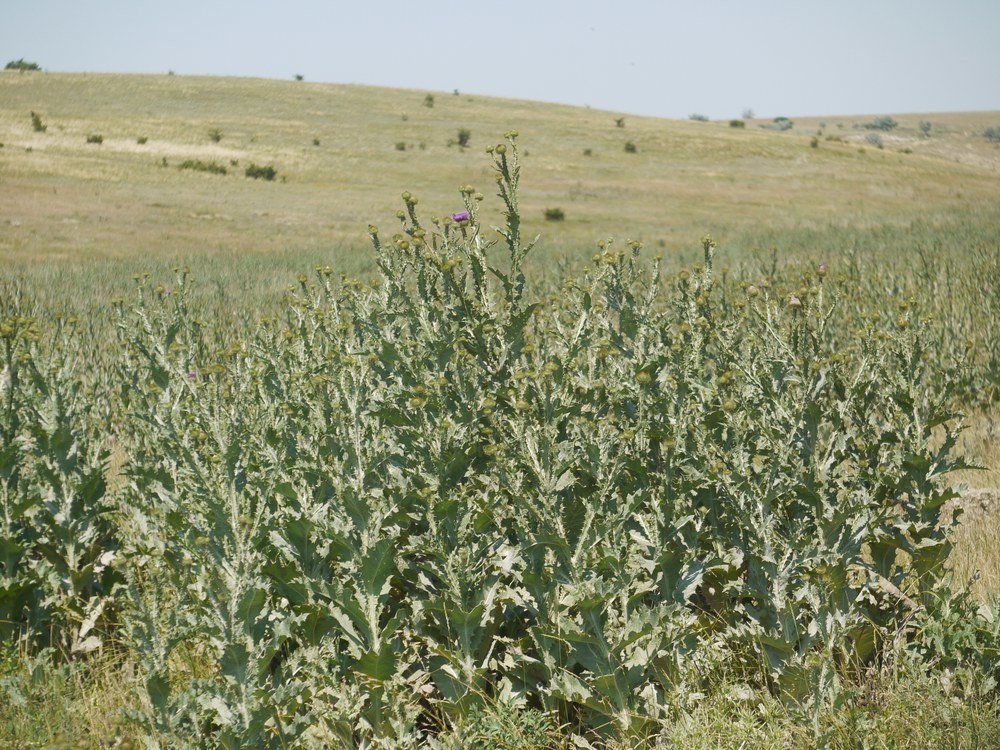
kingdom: Plantae
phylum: Tracheophyta
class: Magnoliopsida
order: Asterales
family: Asteraceae
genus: Onopordum
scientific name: Onopordum acanthium
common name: Scotch thistle
